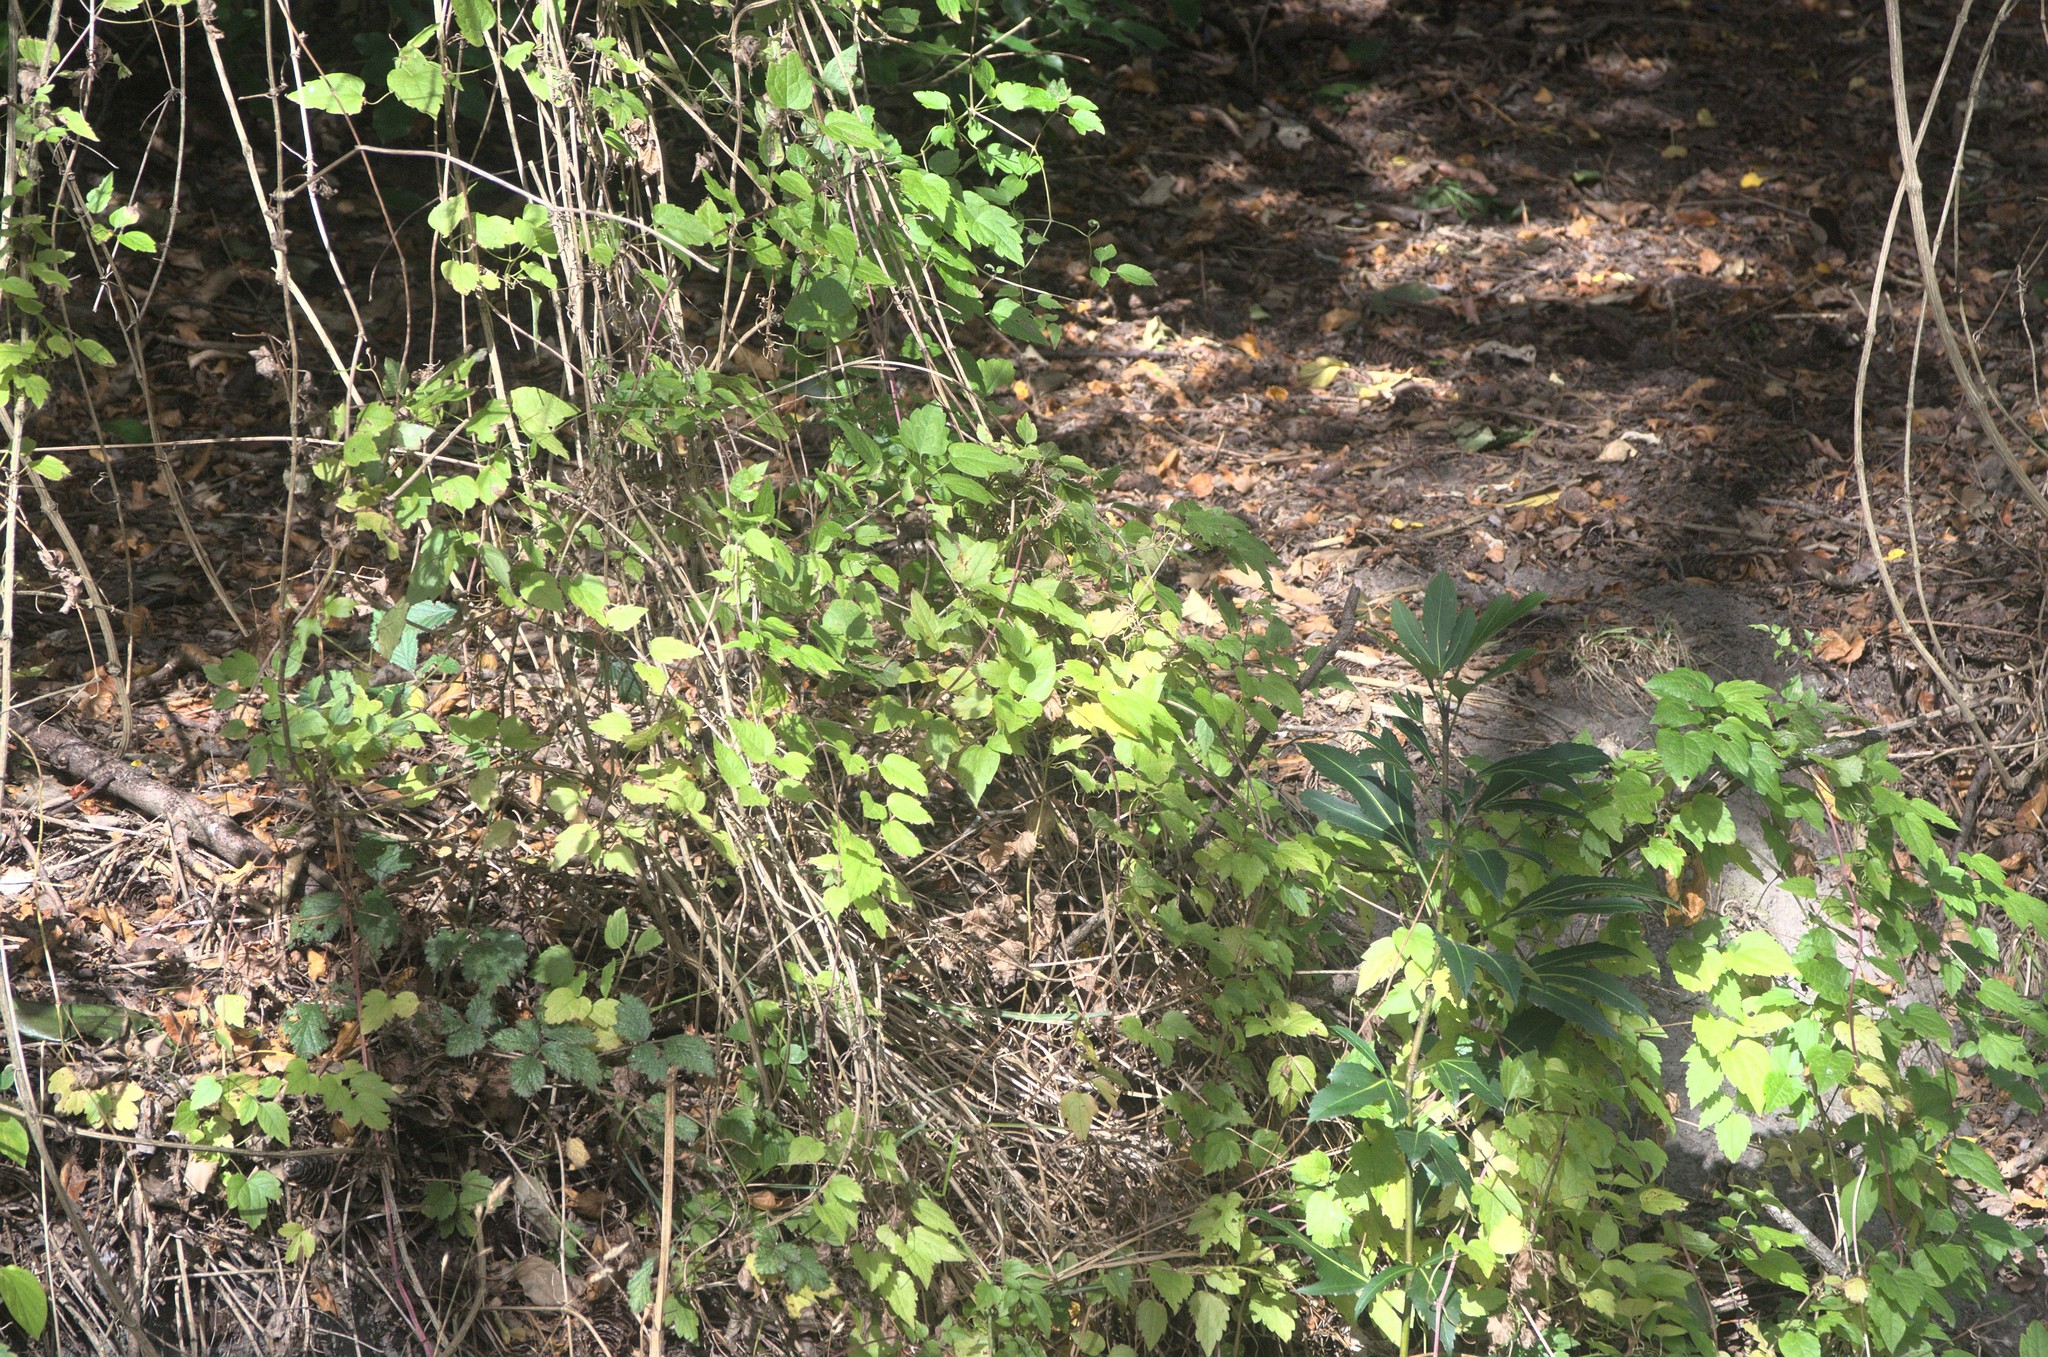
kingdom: Plantae
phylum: Tracheophyta
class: Magnoliopsida
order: Ranunculales
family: Ranunculaceae
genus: Clematis
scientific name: Clematis vitalba
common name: Evergreen clematis
